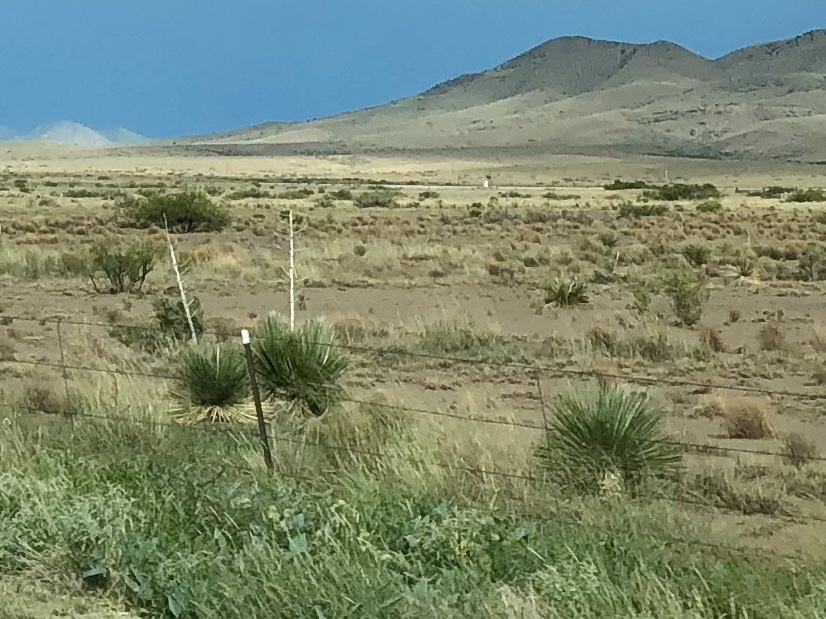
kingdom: Plantae
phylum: Tracheophyta
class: Liliopsida
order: Asparagales
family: Asparagaceae
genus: Yucca
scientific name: Yucca elata
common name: Palmella
